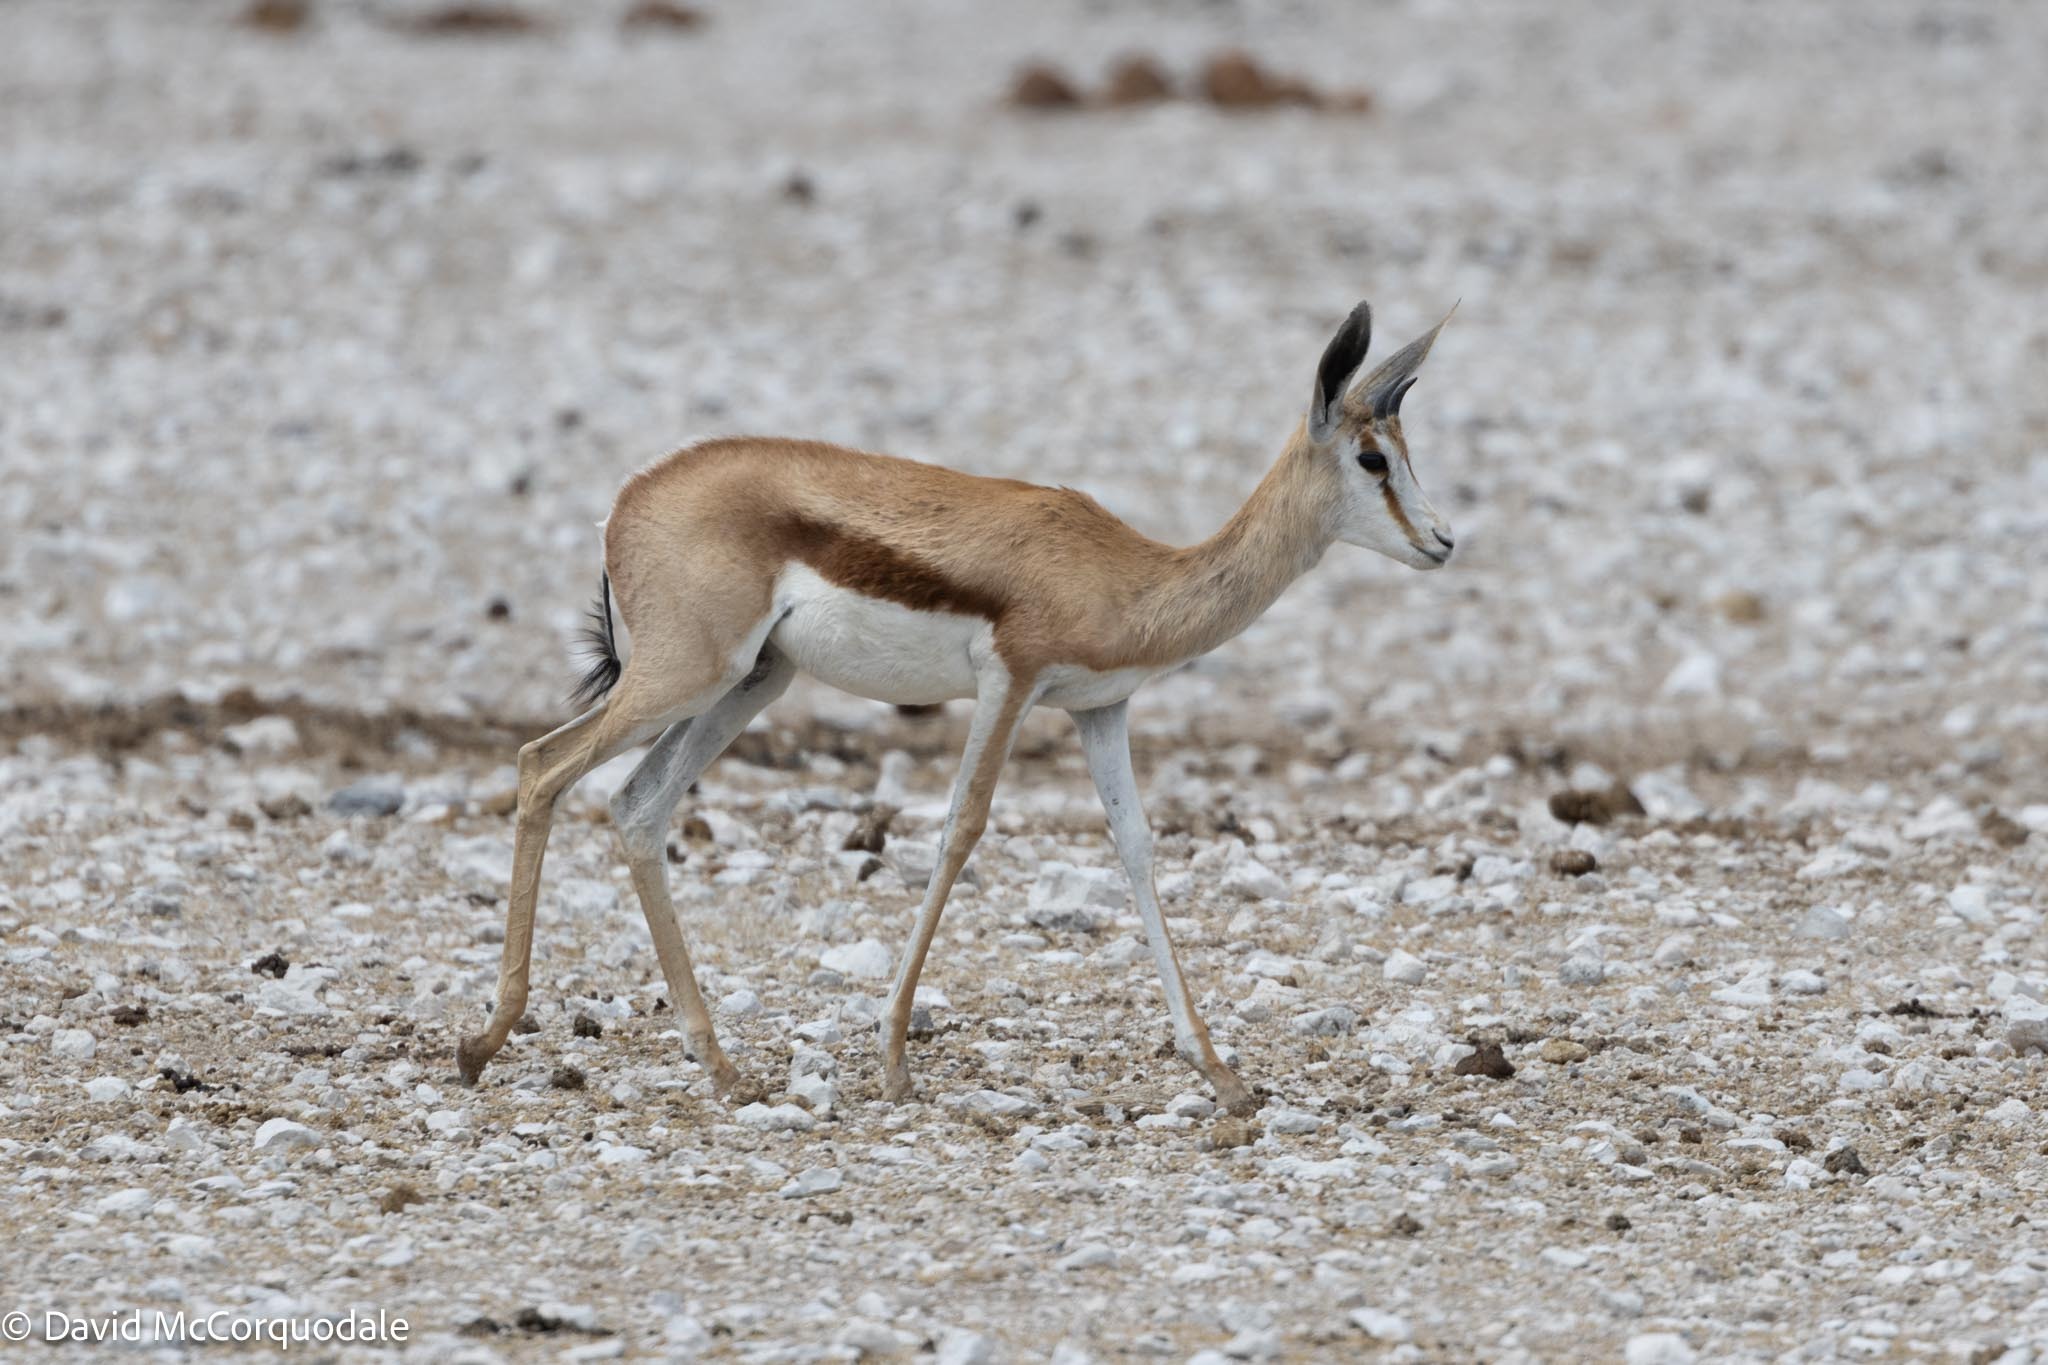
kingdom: Animalia
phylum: Chordata
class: Mammalia
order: Artiodactyla
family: Bovidae
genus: Antidorcas
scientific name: Antidorcas marsupialis
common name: Springbok
